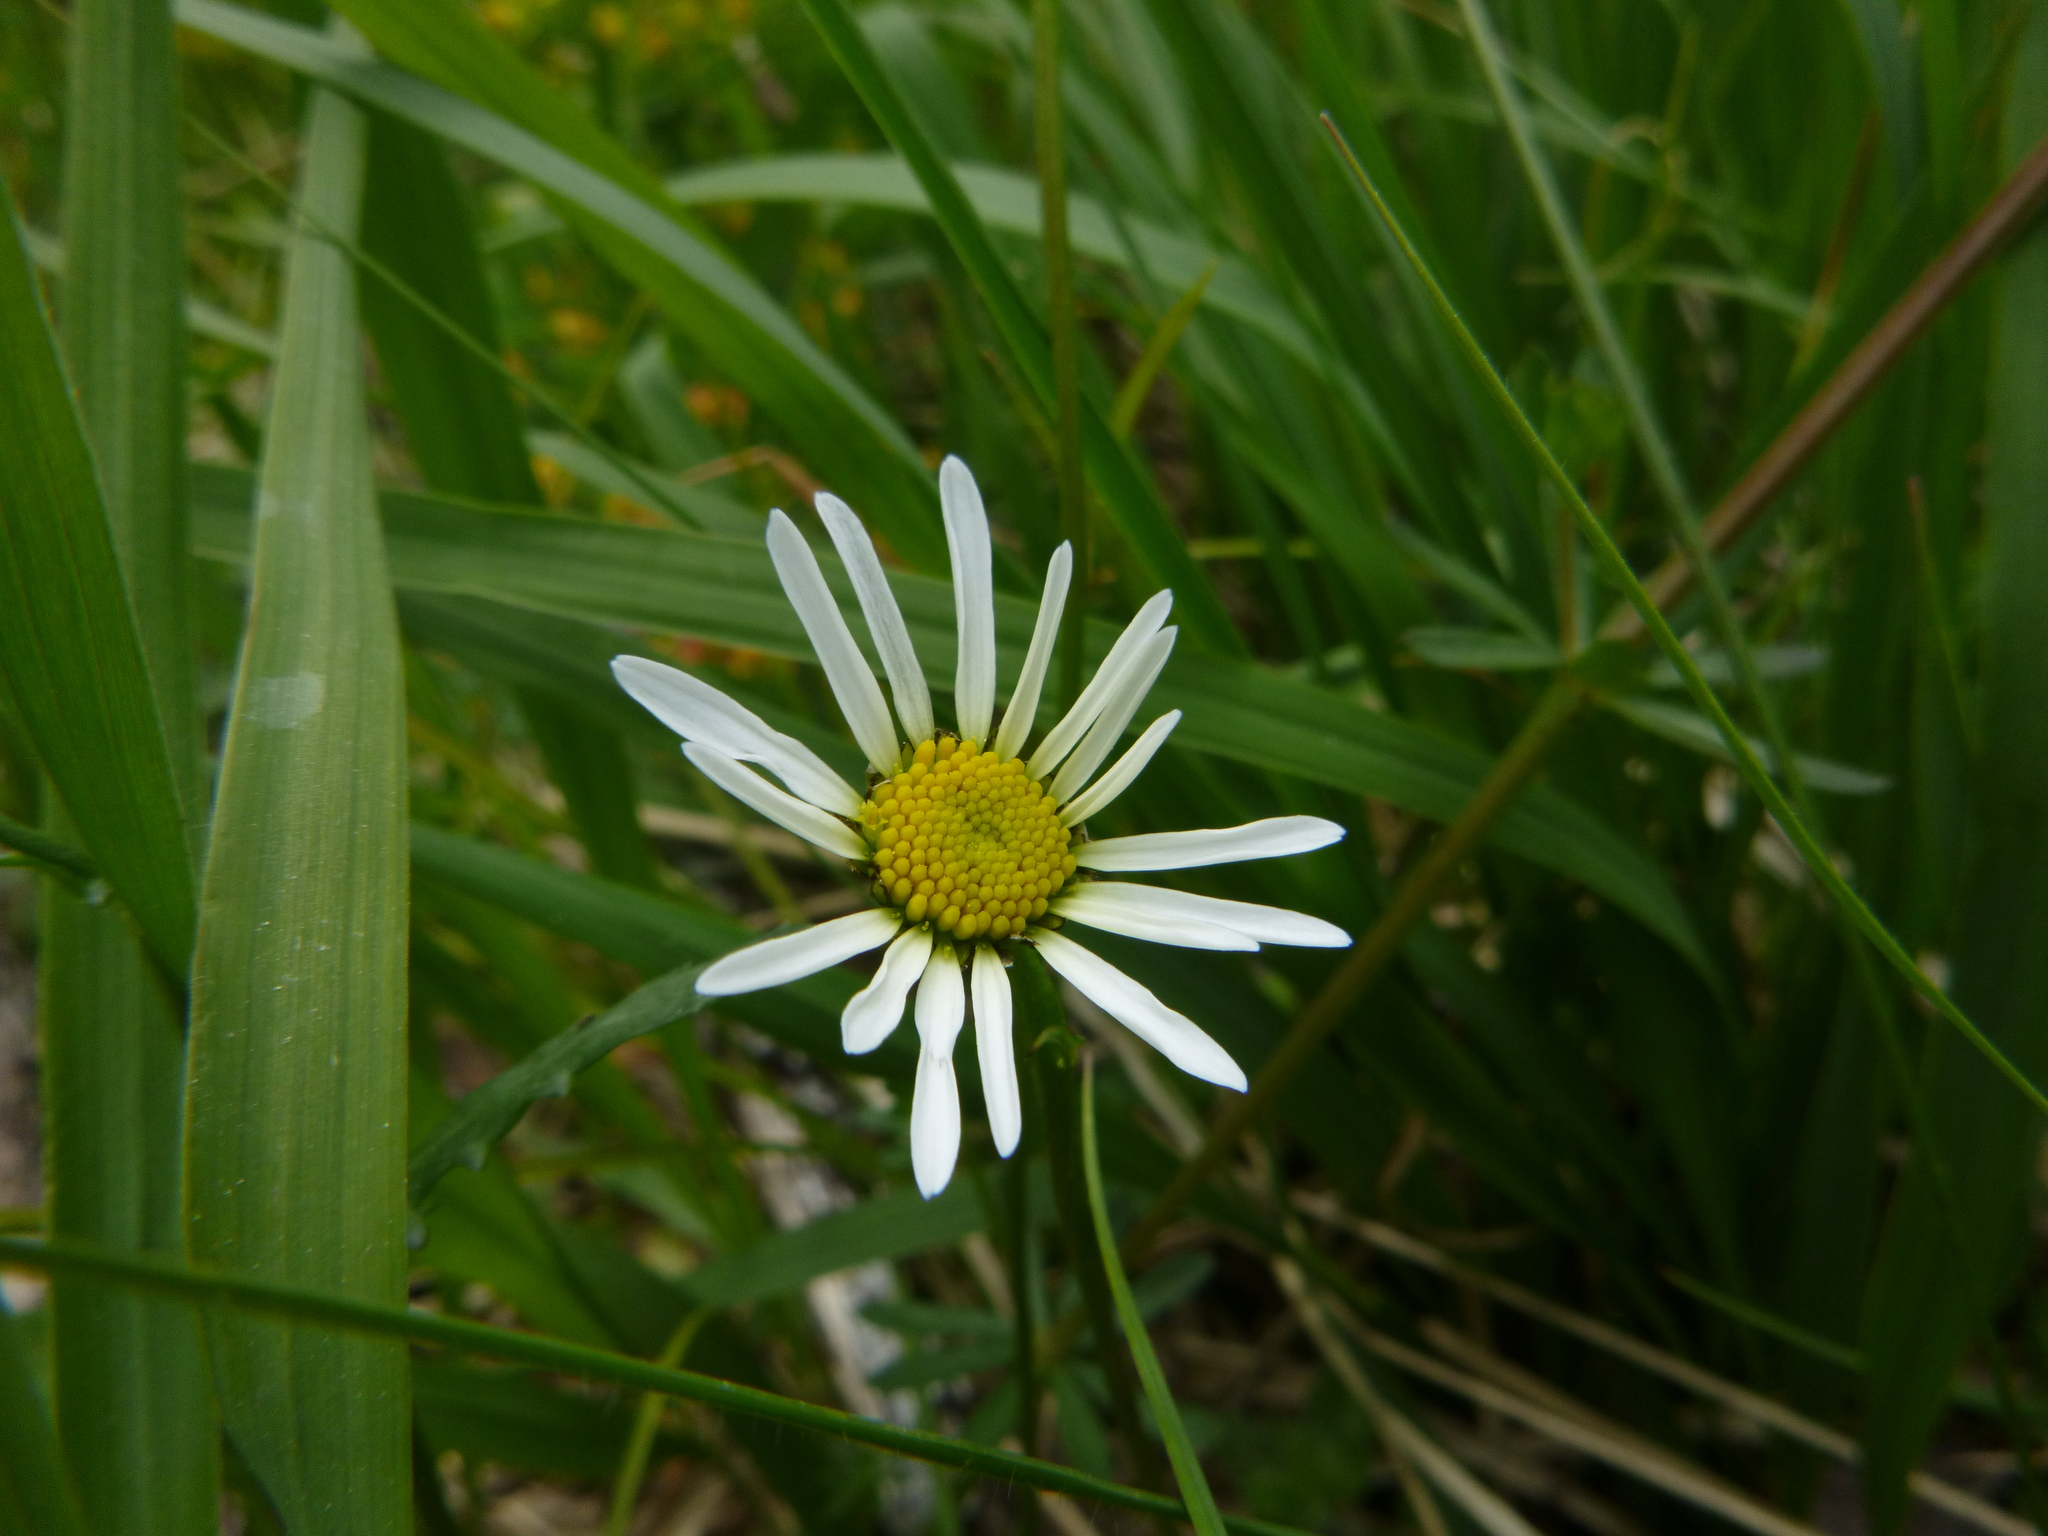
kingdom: Plantae
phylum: Tracheophyta
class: Magnoliopsida
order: Asterales
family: Asteraceae
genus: Leucanthemum
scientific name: Leucanthemum vulgare
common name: Oxeye daisy
